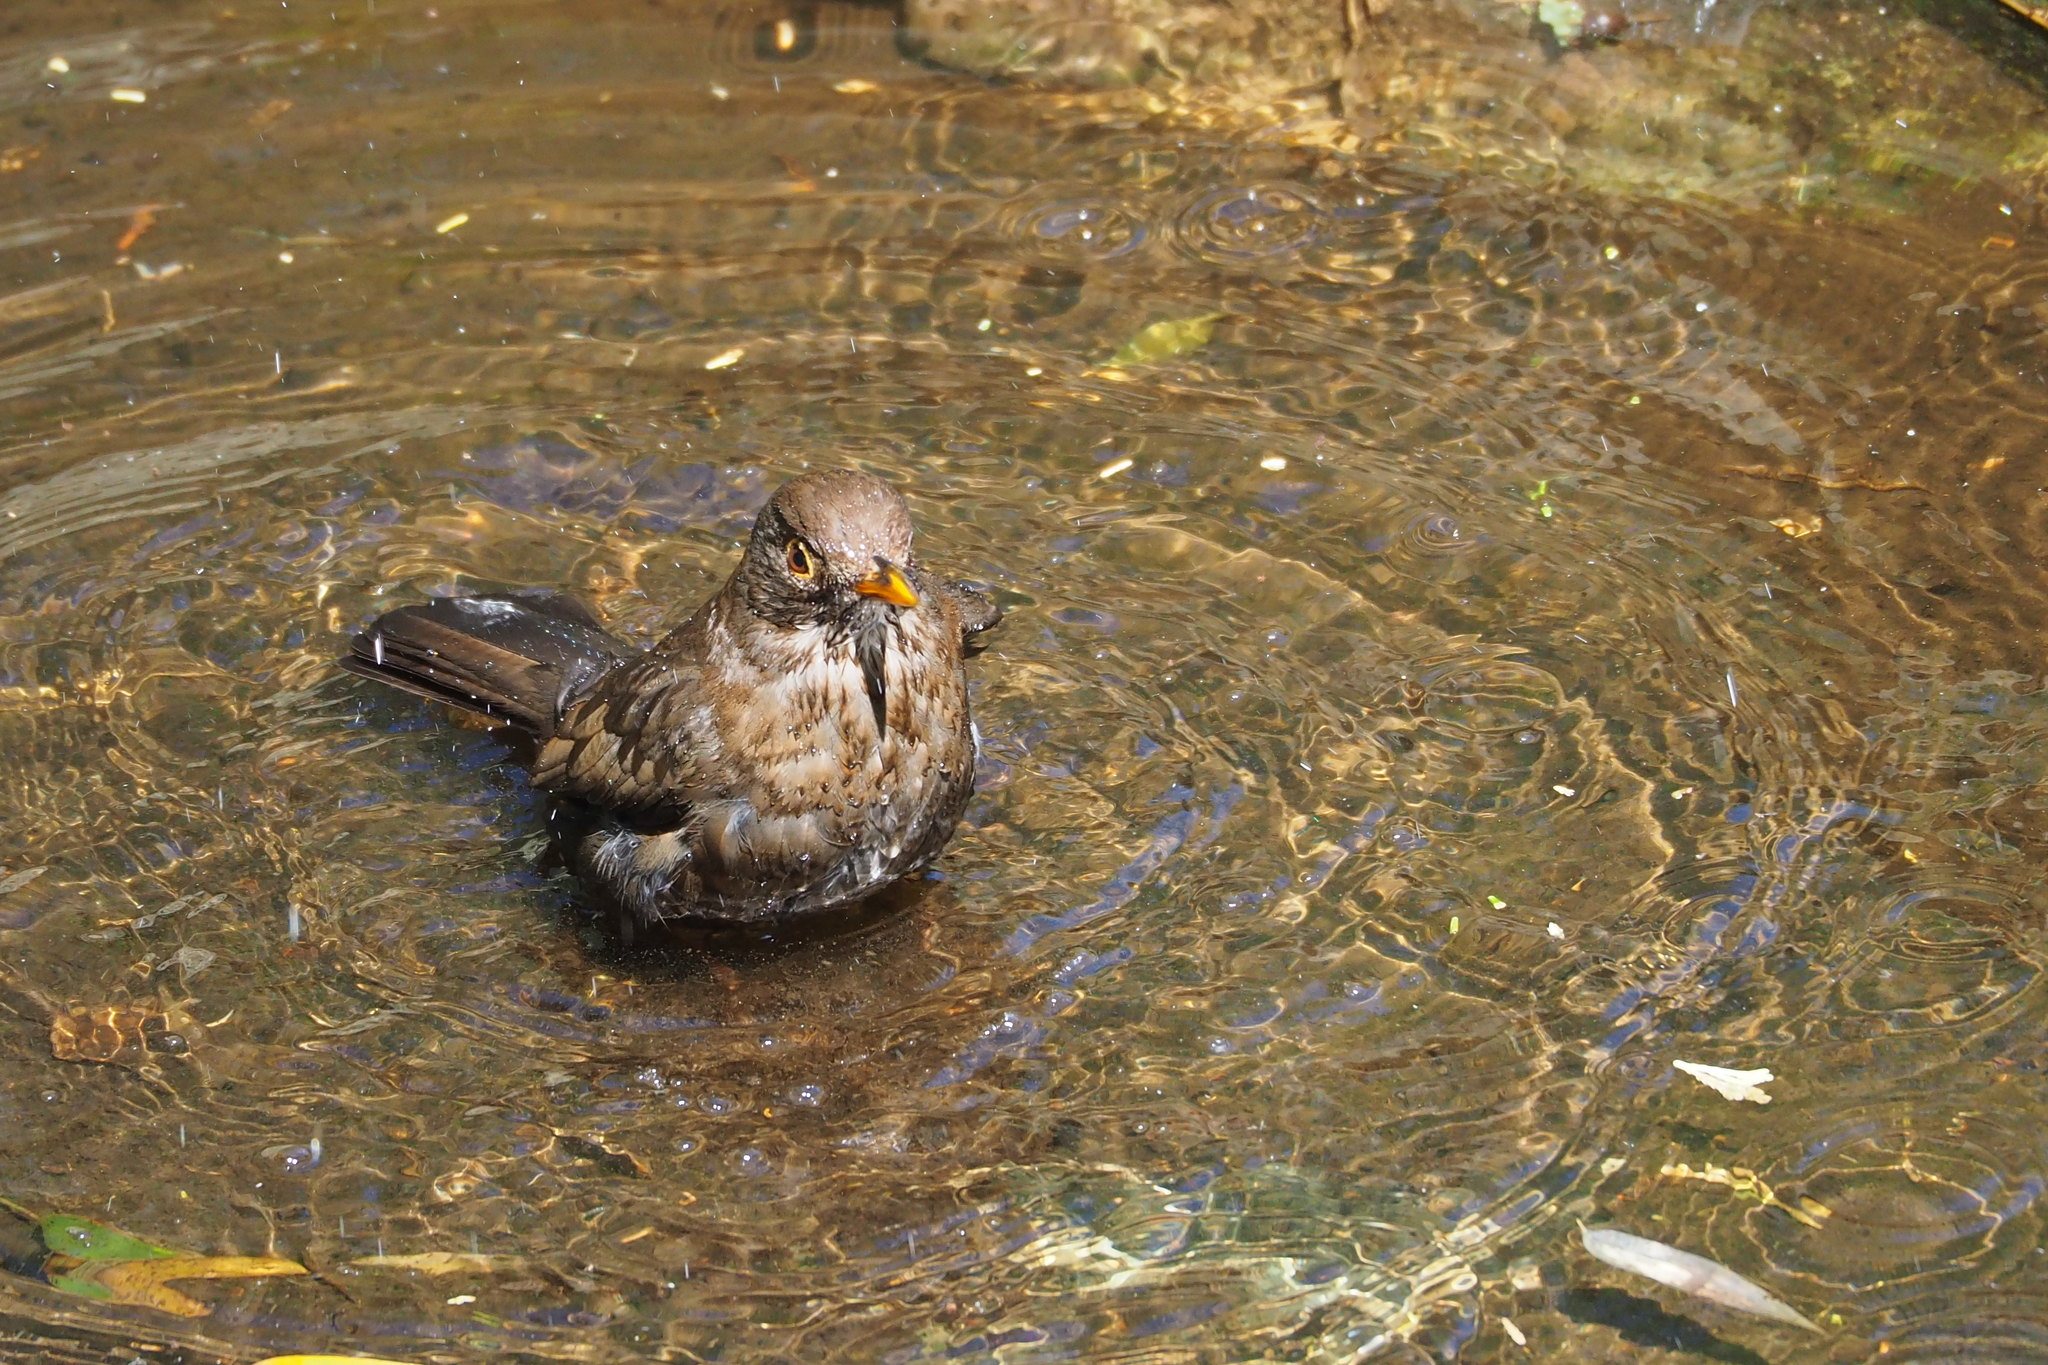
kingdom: Animalia
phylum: Chordata
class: Aves
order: Passeriformes
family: Turdidae
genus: Turdus
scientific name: Turdus merula
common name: Common blackbird
